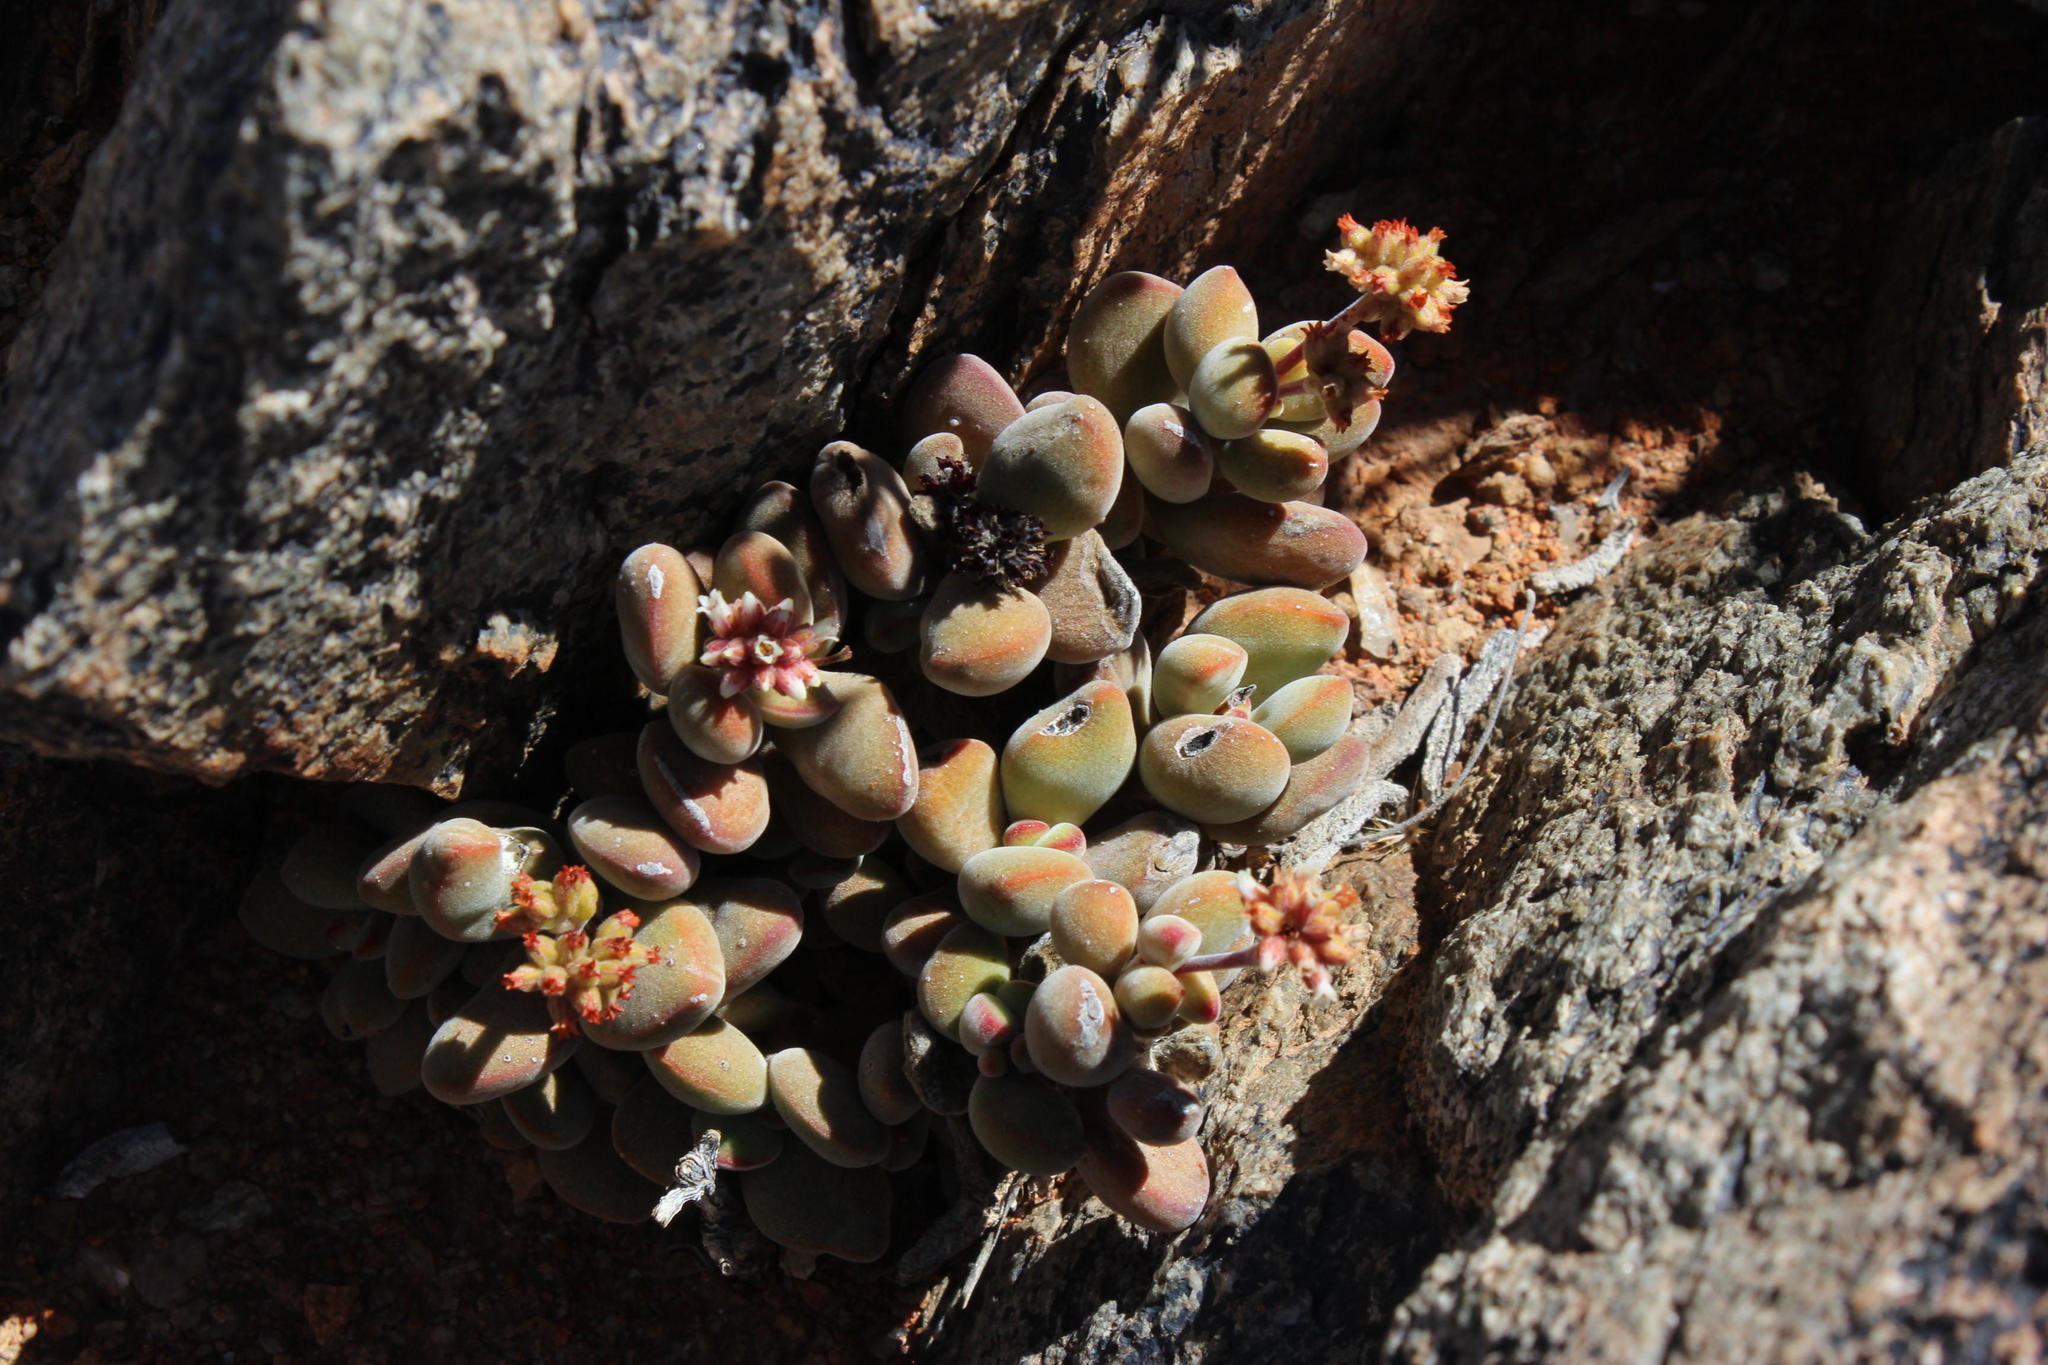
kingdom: Plantae
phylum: Tracheophyta
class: Magnoliopsida
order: Saxifragales
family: Crassulaceae
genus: Crassula
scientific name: Crassula sericea
